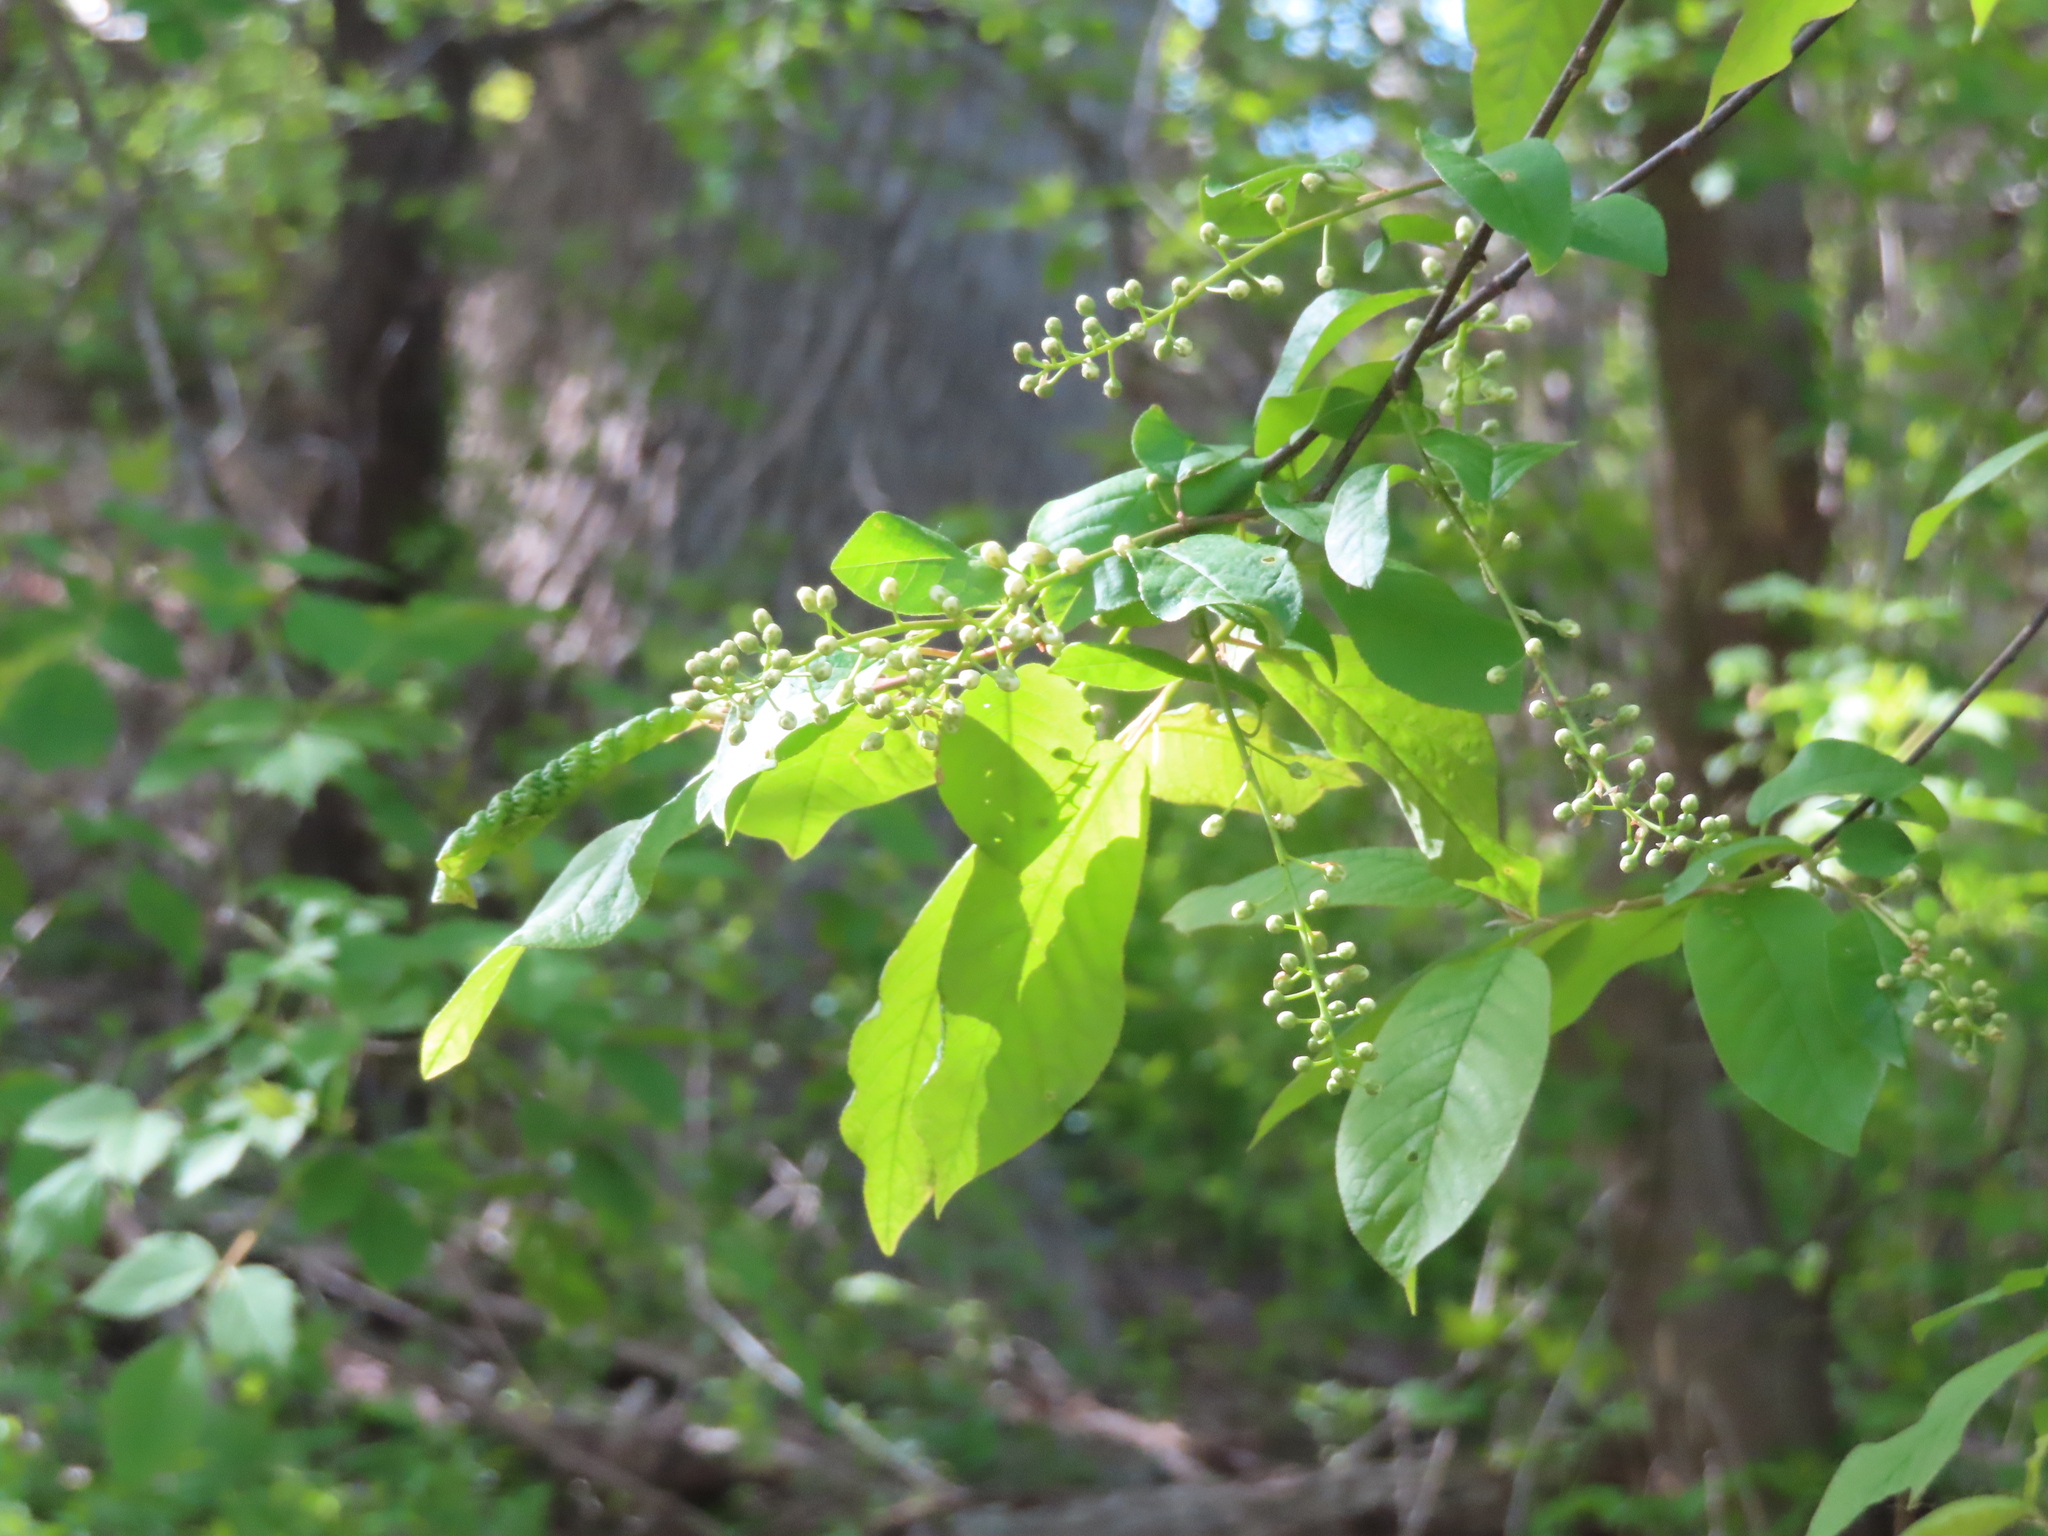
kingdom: Plantae
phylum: Tracheophyta
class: Magnoliopsida
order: Rosales
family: Rosaceae
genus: Prunus
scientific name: Prunus virginiana
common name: Chokecherry
